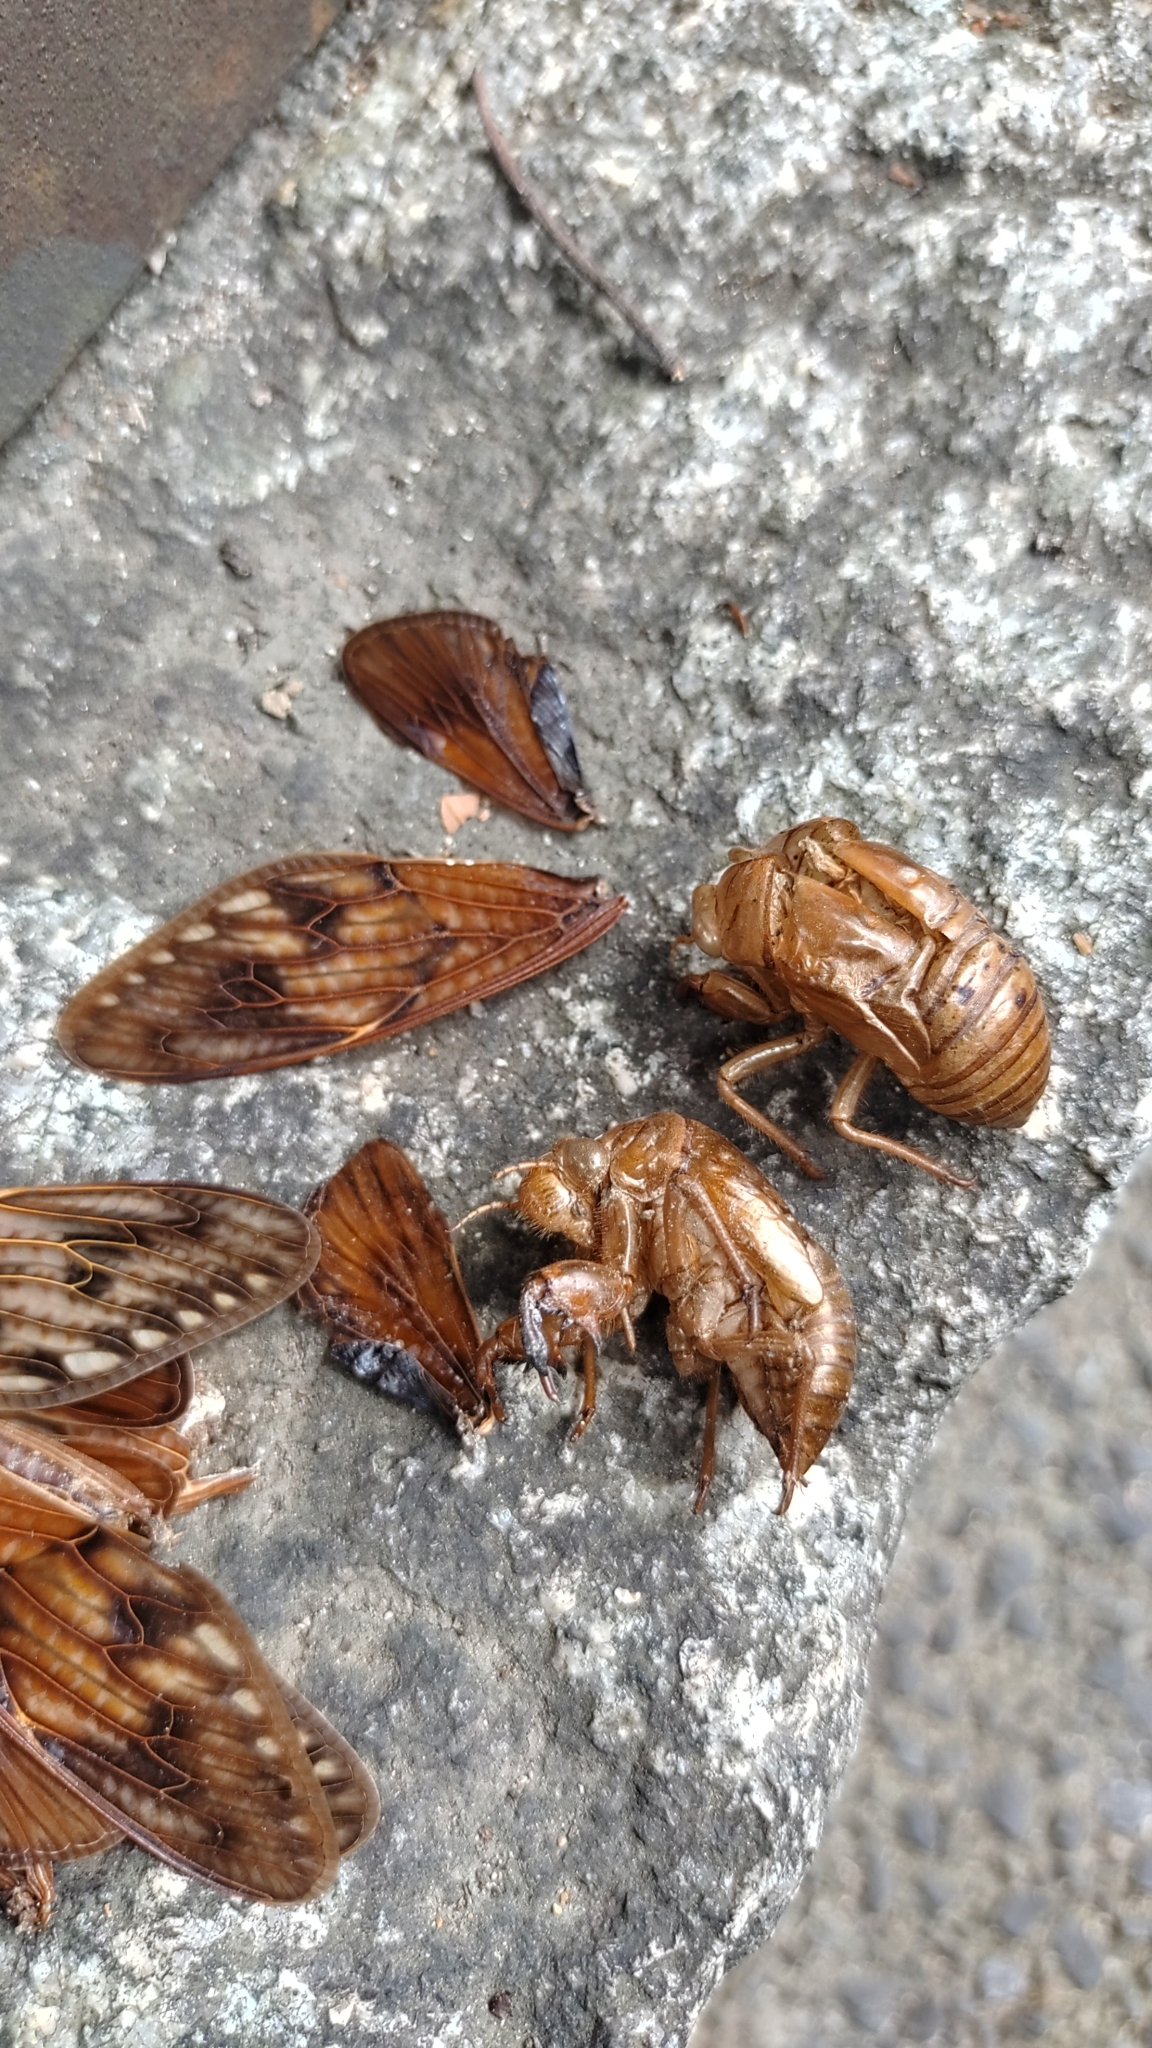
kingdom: Animalia
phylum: Arthropoda
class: Insecta
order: Hemiptera
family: Cicadidae
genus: Graptopsaltria
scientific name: Graptopsaltria nigrofuscata
